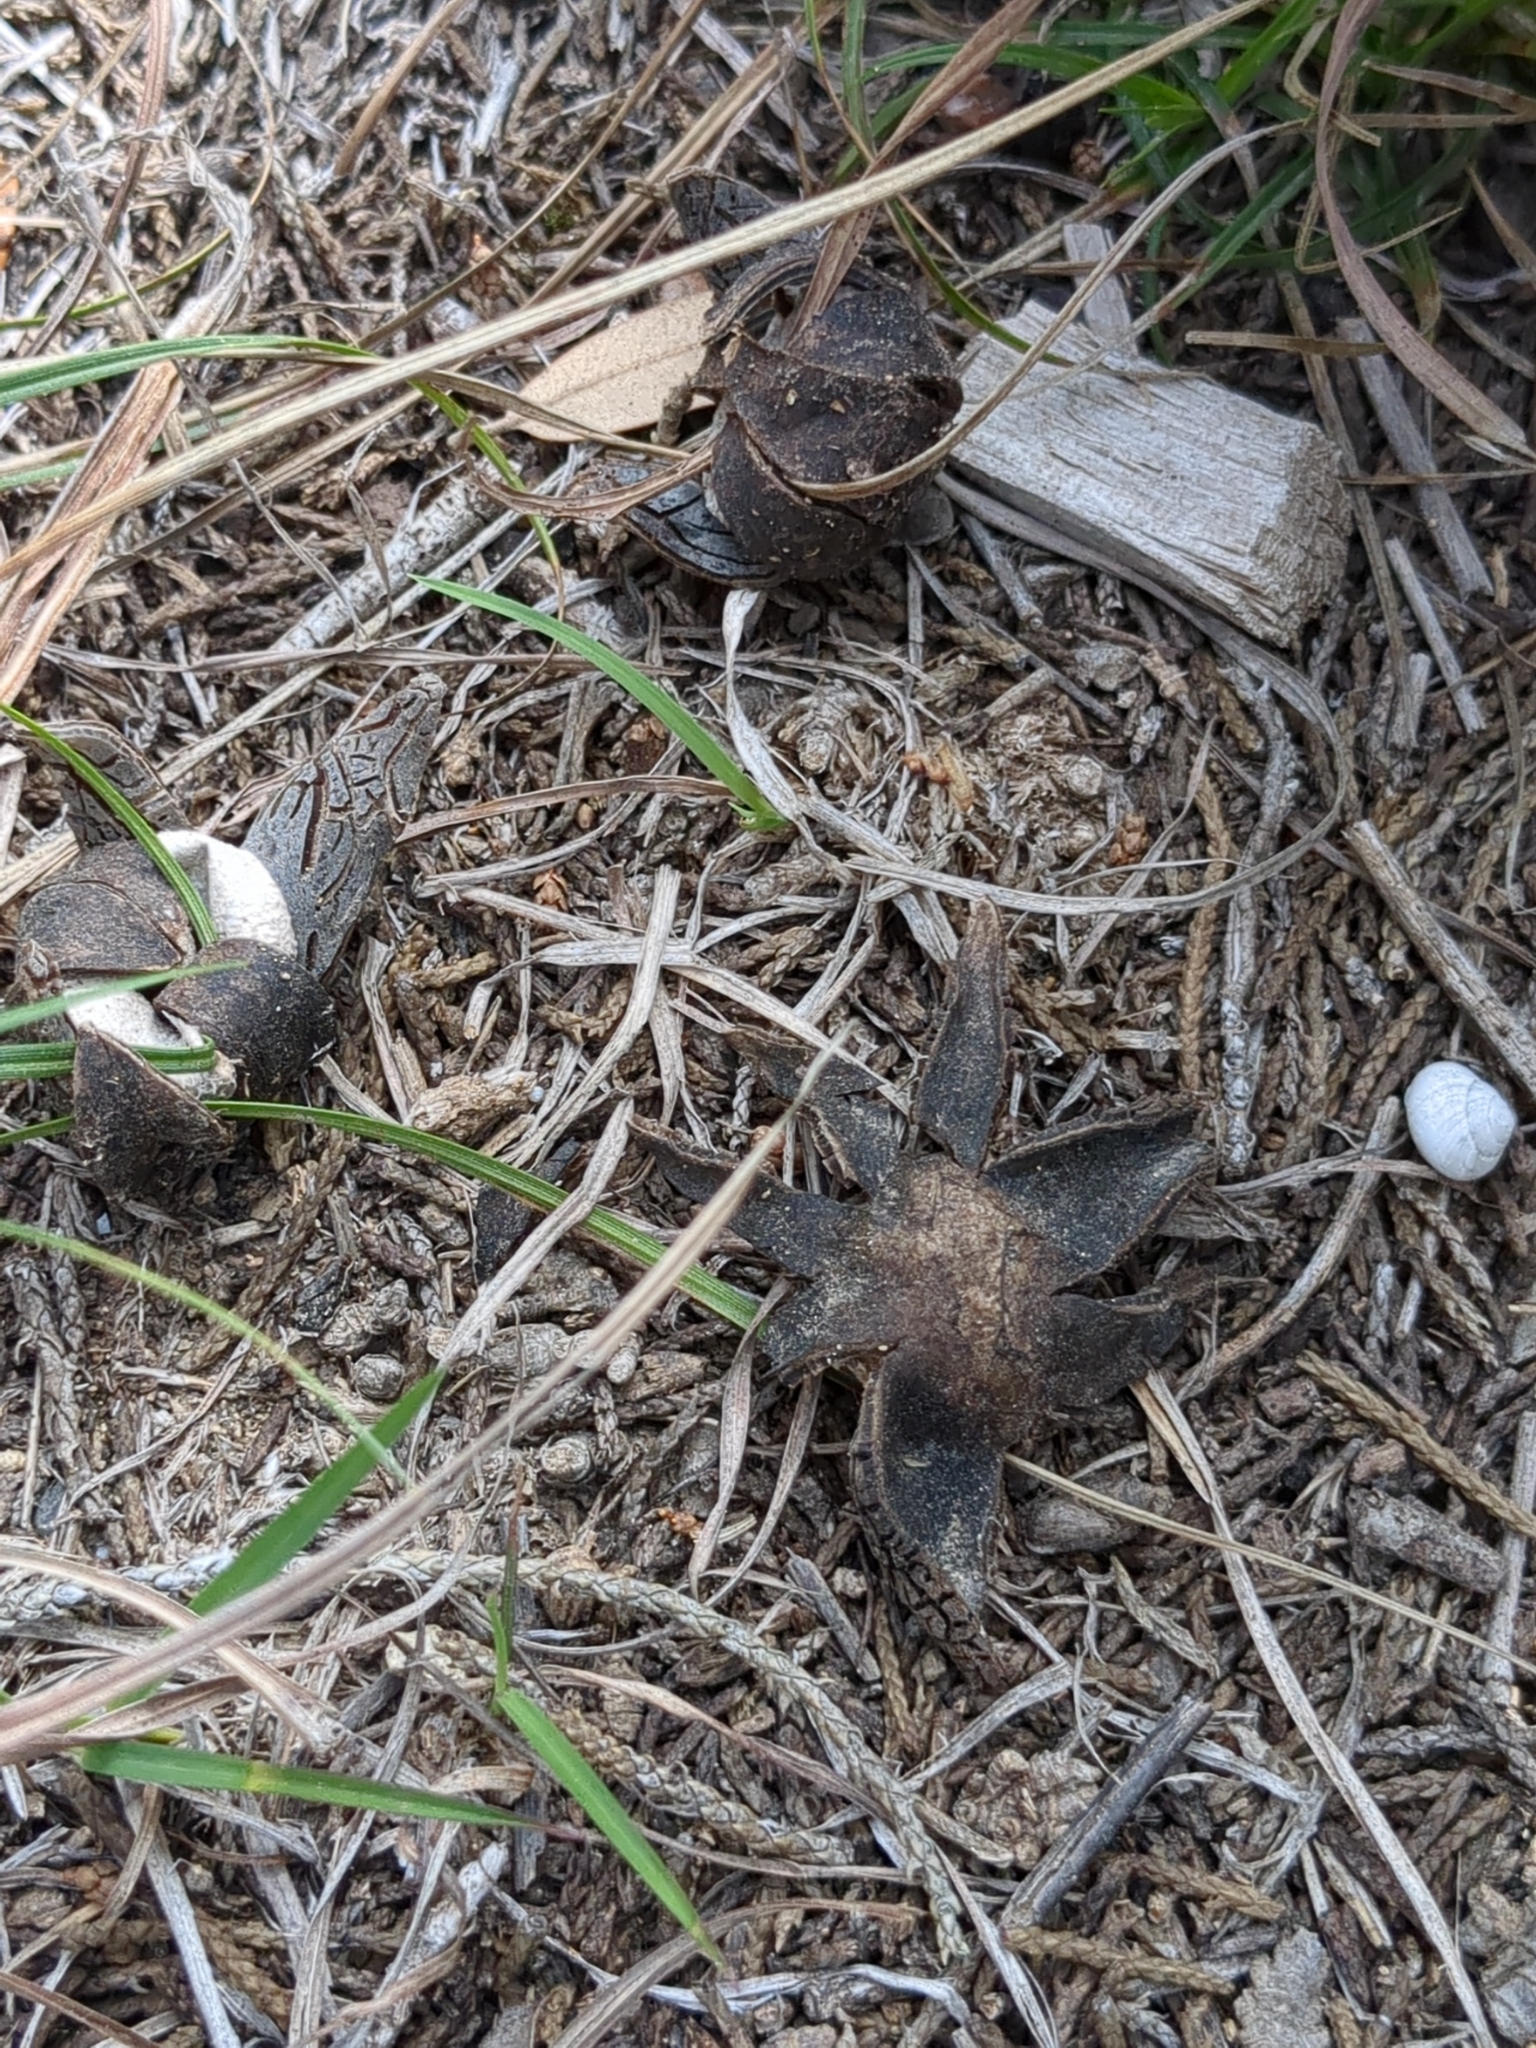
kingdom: Fungi
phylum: Basidiomycota
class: Agaricomycetes
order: Boletales
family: Diplocystidiaceae
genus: Astraeus
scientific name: Astraeus morganii
